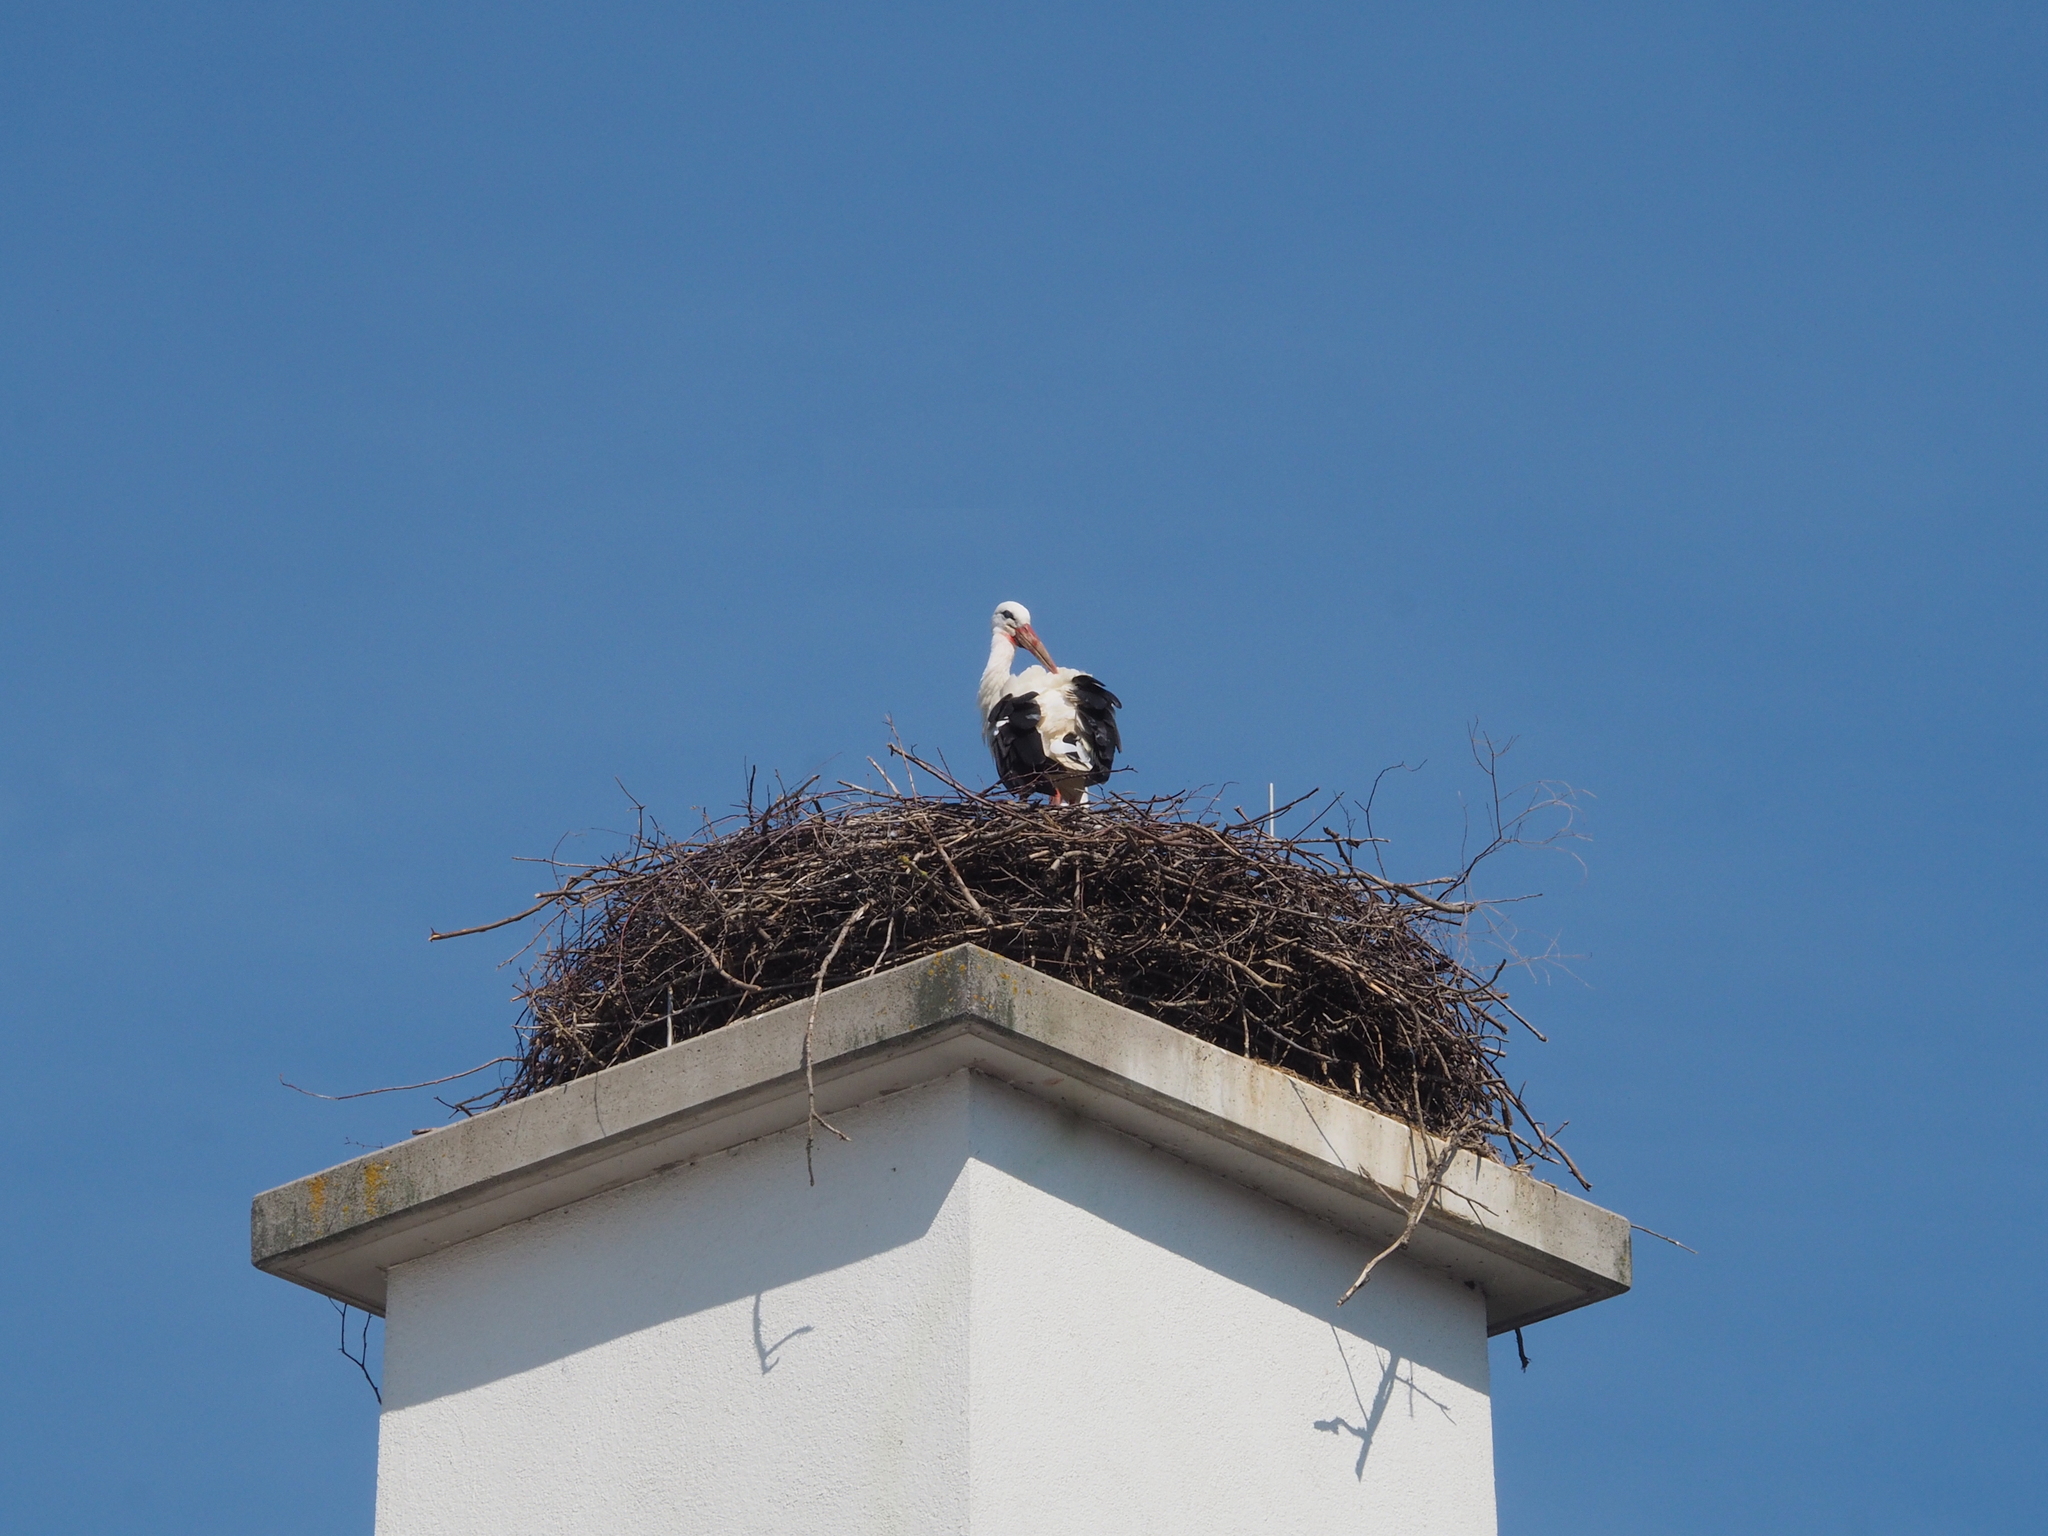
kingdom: Animalia
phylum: Chordata
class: Aves
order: Ciconiiformes
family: Ciconiidae
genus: Ciconia
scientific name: Ciconia ciconia
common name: White stork
